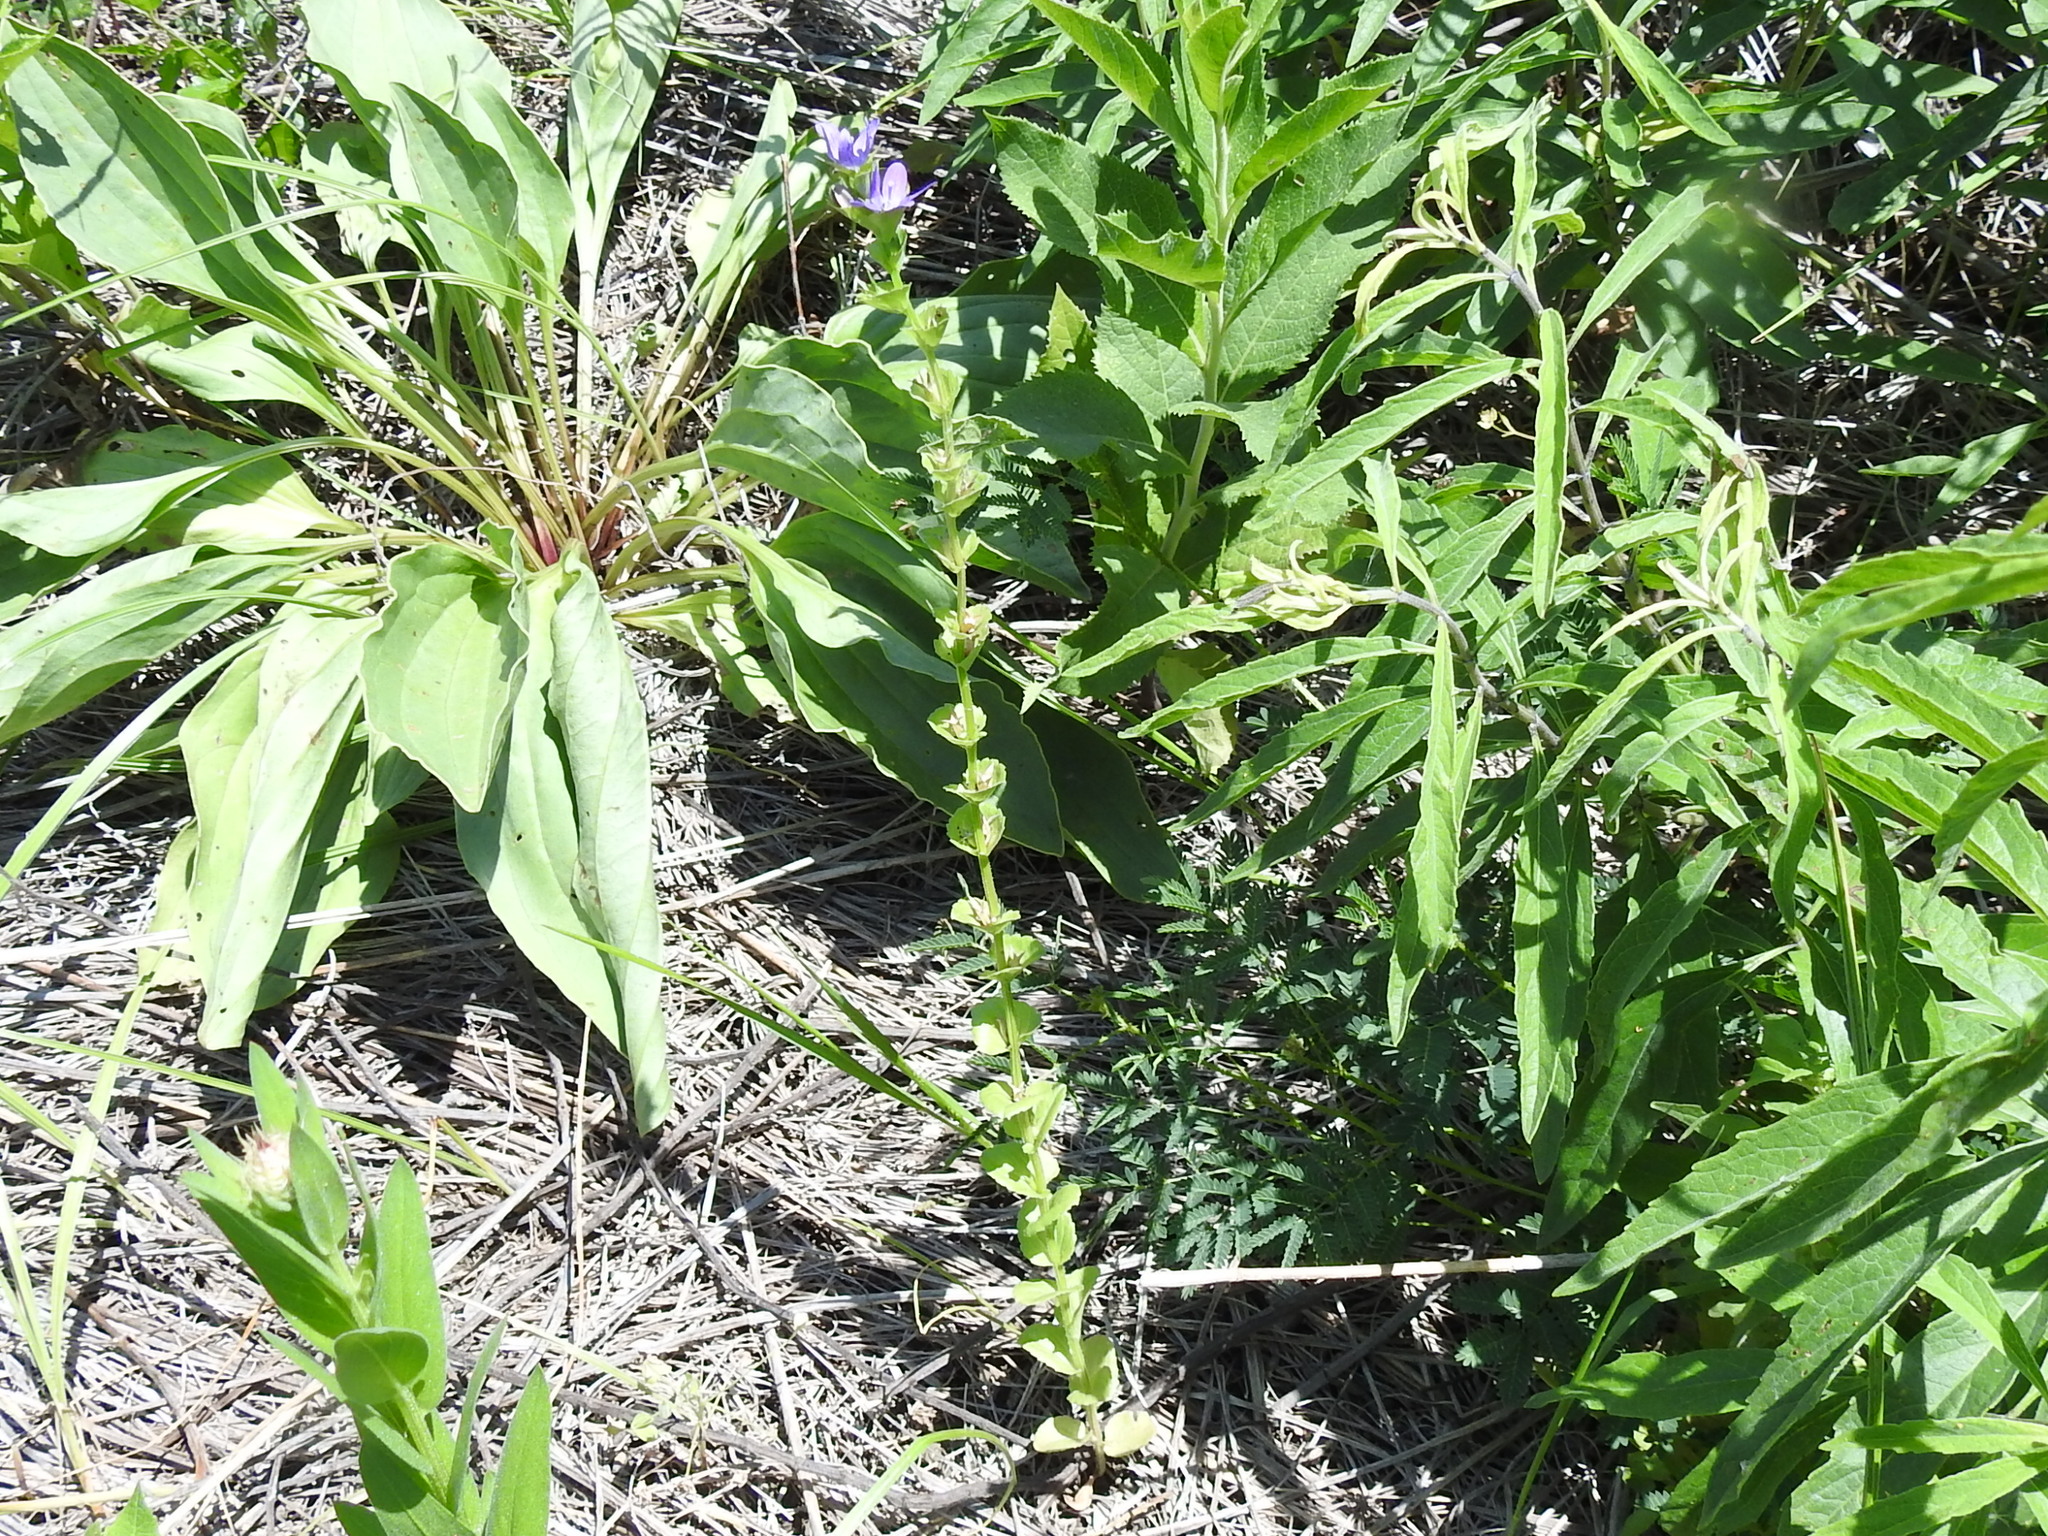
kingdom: Plantae
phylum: Tracheophyta
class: Magnoliopsida
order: Asterales
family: Campanulaceae
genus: Triodanis
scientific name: Triodanis perfoliata
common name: Clasping venus' looking-glass
